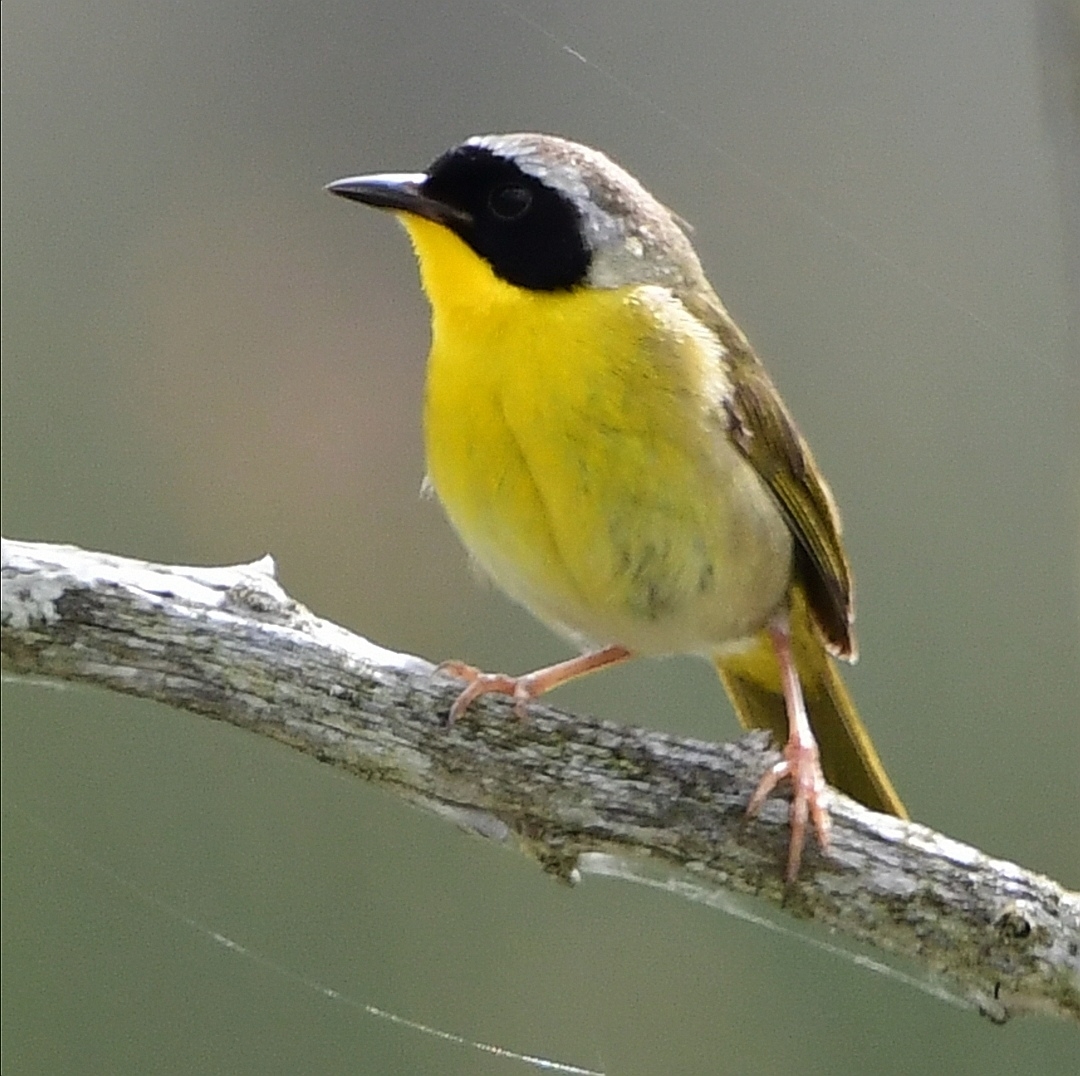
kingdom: Animalia
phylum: Chordata
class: Aves
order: Passeriformes
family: Parulidae
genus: Geothlypis
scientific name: Geothlypis trichas
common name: Common yellowthroat
